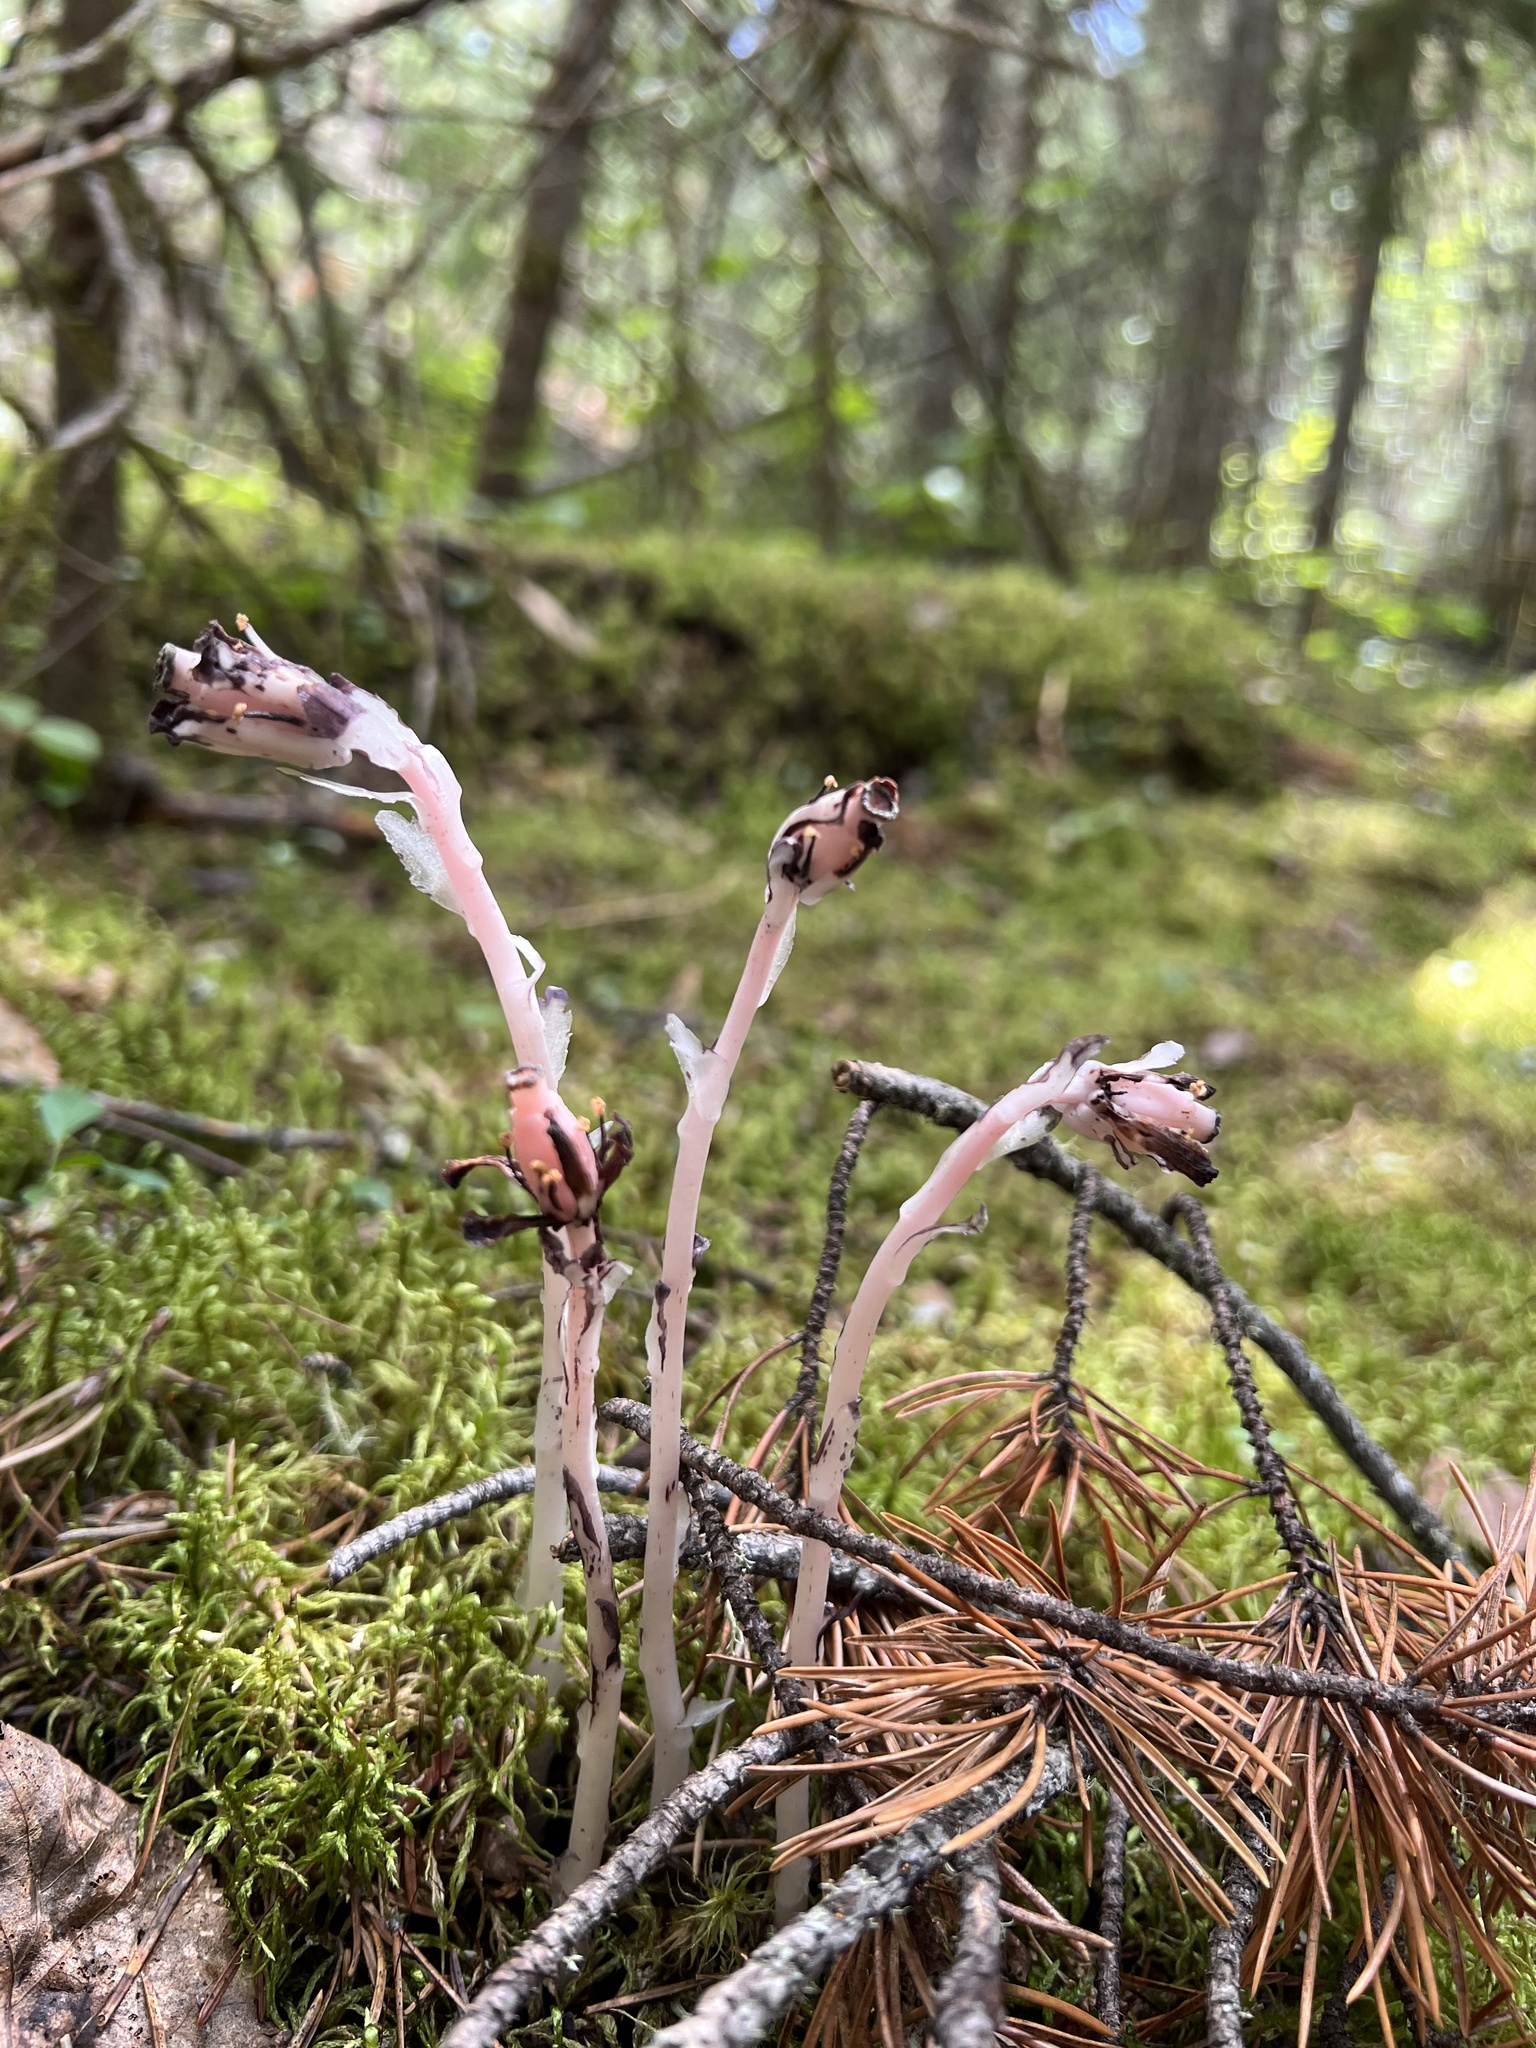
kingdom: Plantae
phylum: Tracheophyta
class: Magnoliopsida
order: Ericales
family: Ericaceae
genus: Monotropa
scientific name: Monotropa uniflora
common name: Convulsion root
